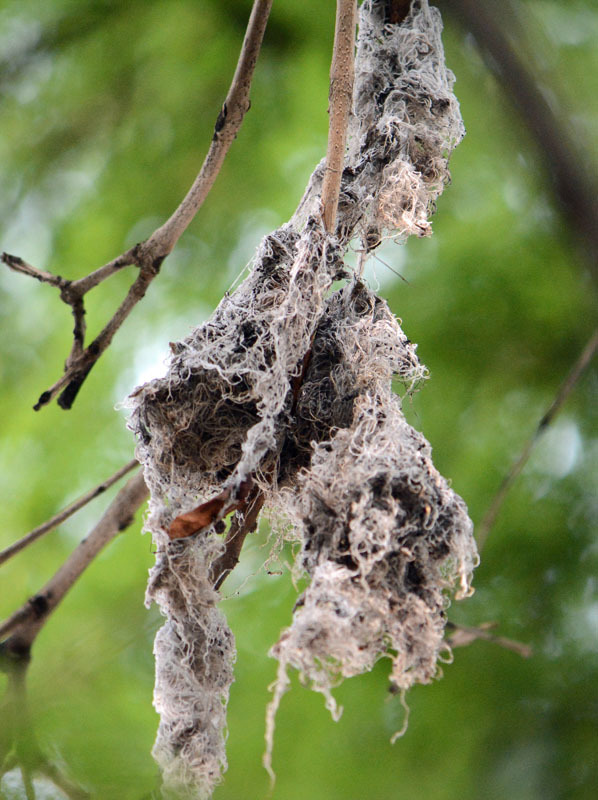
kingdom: Animalia
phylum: Chordata
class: Aves
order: Passeriformes
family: Aegithalidae
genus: Psaltriparus
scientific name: Psaltriparus minimus
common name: American bushtit
